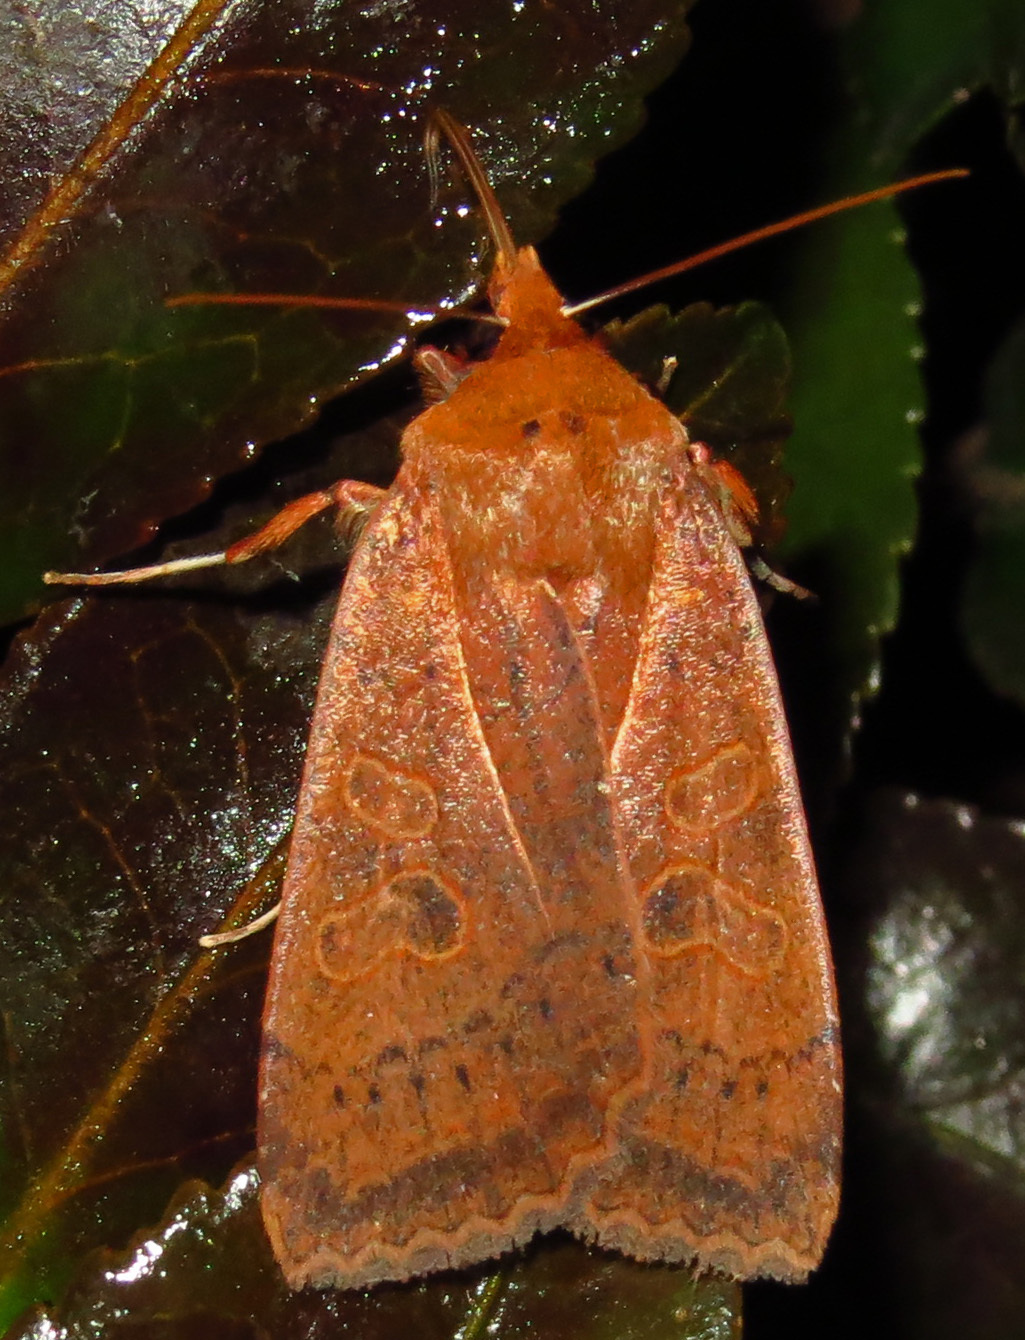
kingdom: Animalia
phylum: Arthropoda
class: Insecta
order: Lepidoptera
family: Noctuidae
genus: Metaxaglaea
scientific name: Metaxaglaea viatica
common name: Roadside sallow
